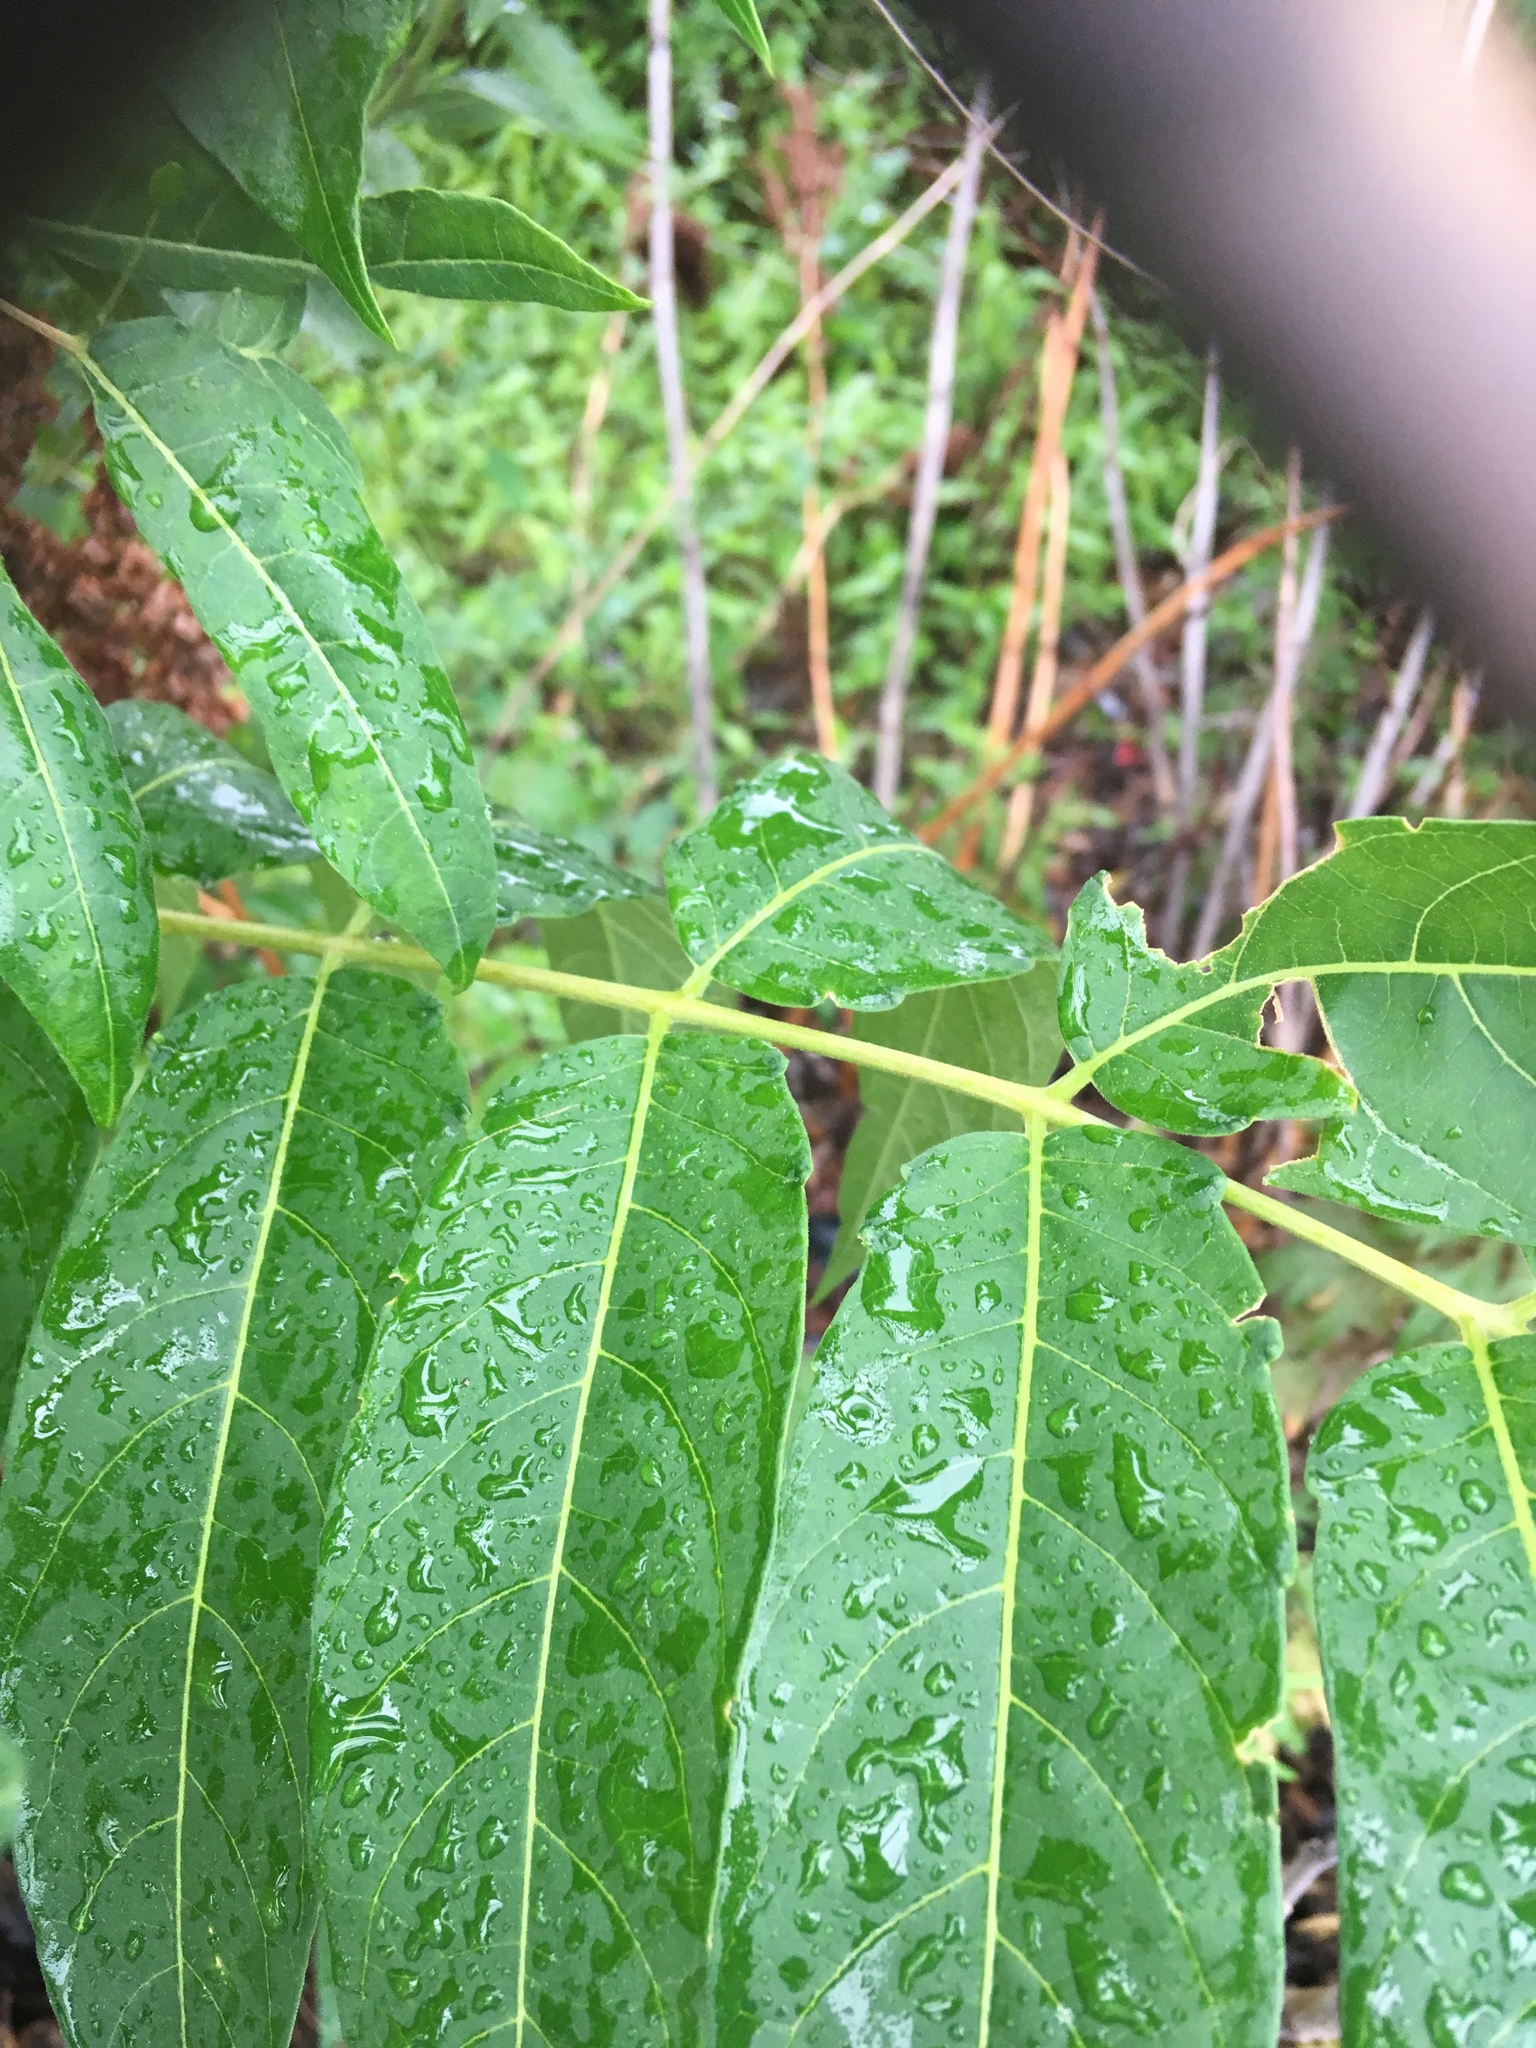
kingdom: Plantae
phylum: Tracheophyta
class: Magnoliopsida
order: Sapindales
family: Simaroubaceae
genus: Ailanthus
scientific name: Ailanthus altissima
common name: Tree-of-heaven
